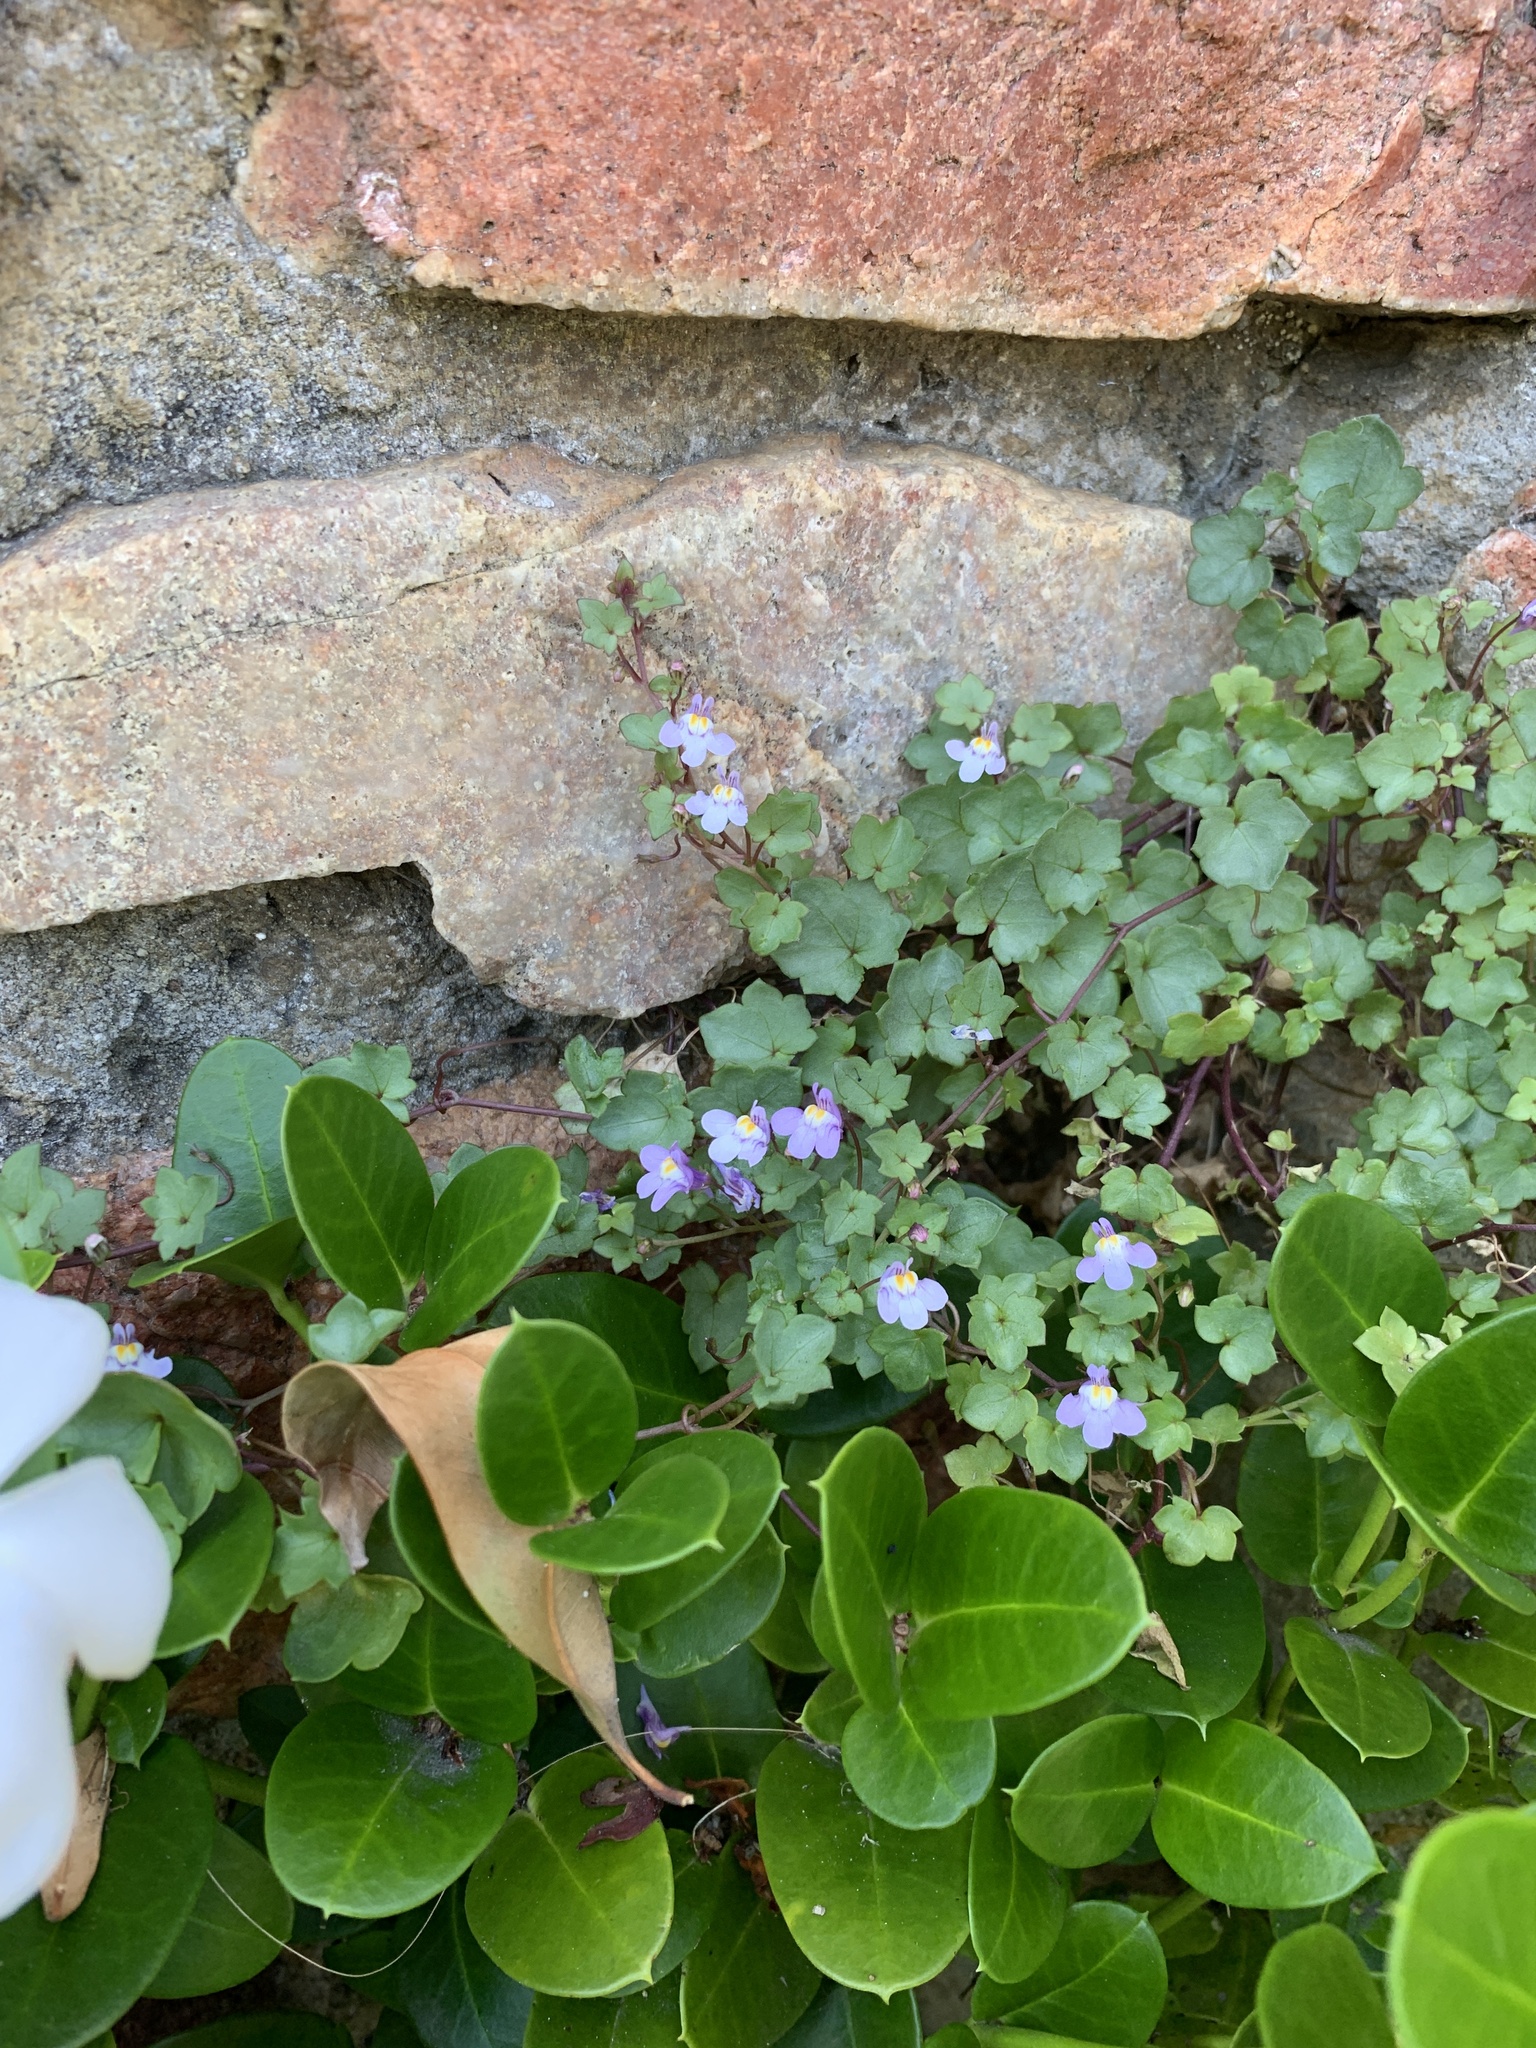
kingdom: Plantae
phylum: Tracheophyta
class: Magnoliopsida
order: Lamiales
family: Plantaginaceae
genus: Cymbalaria
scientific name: Cymbalaria muralis
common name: Ivy-leaved toadflax
